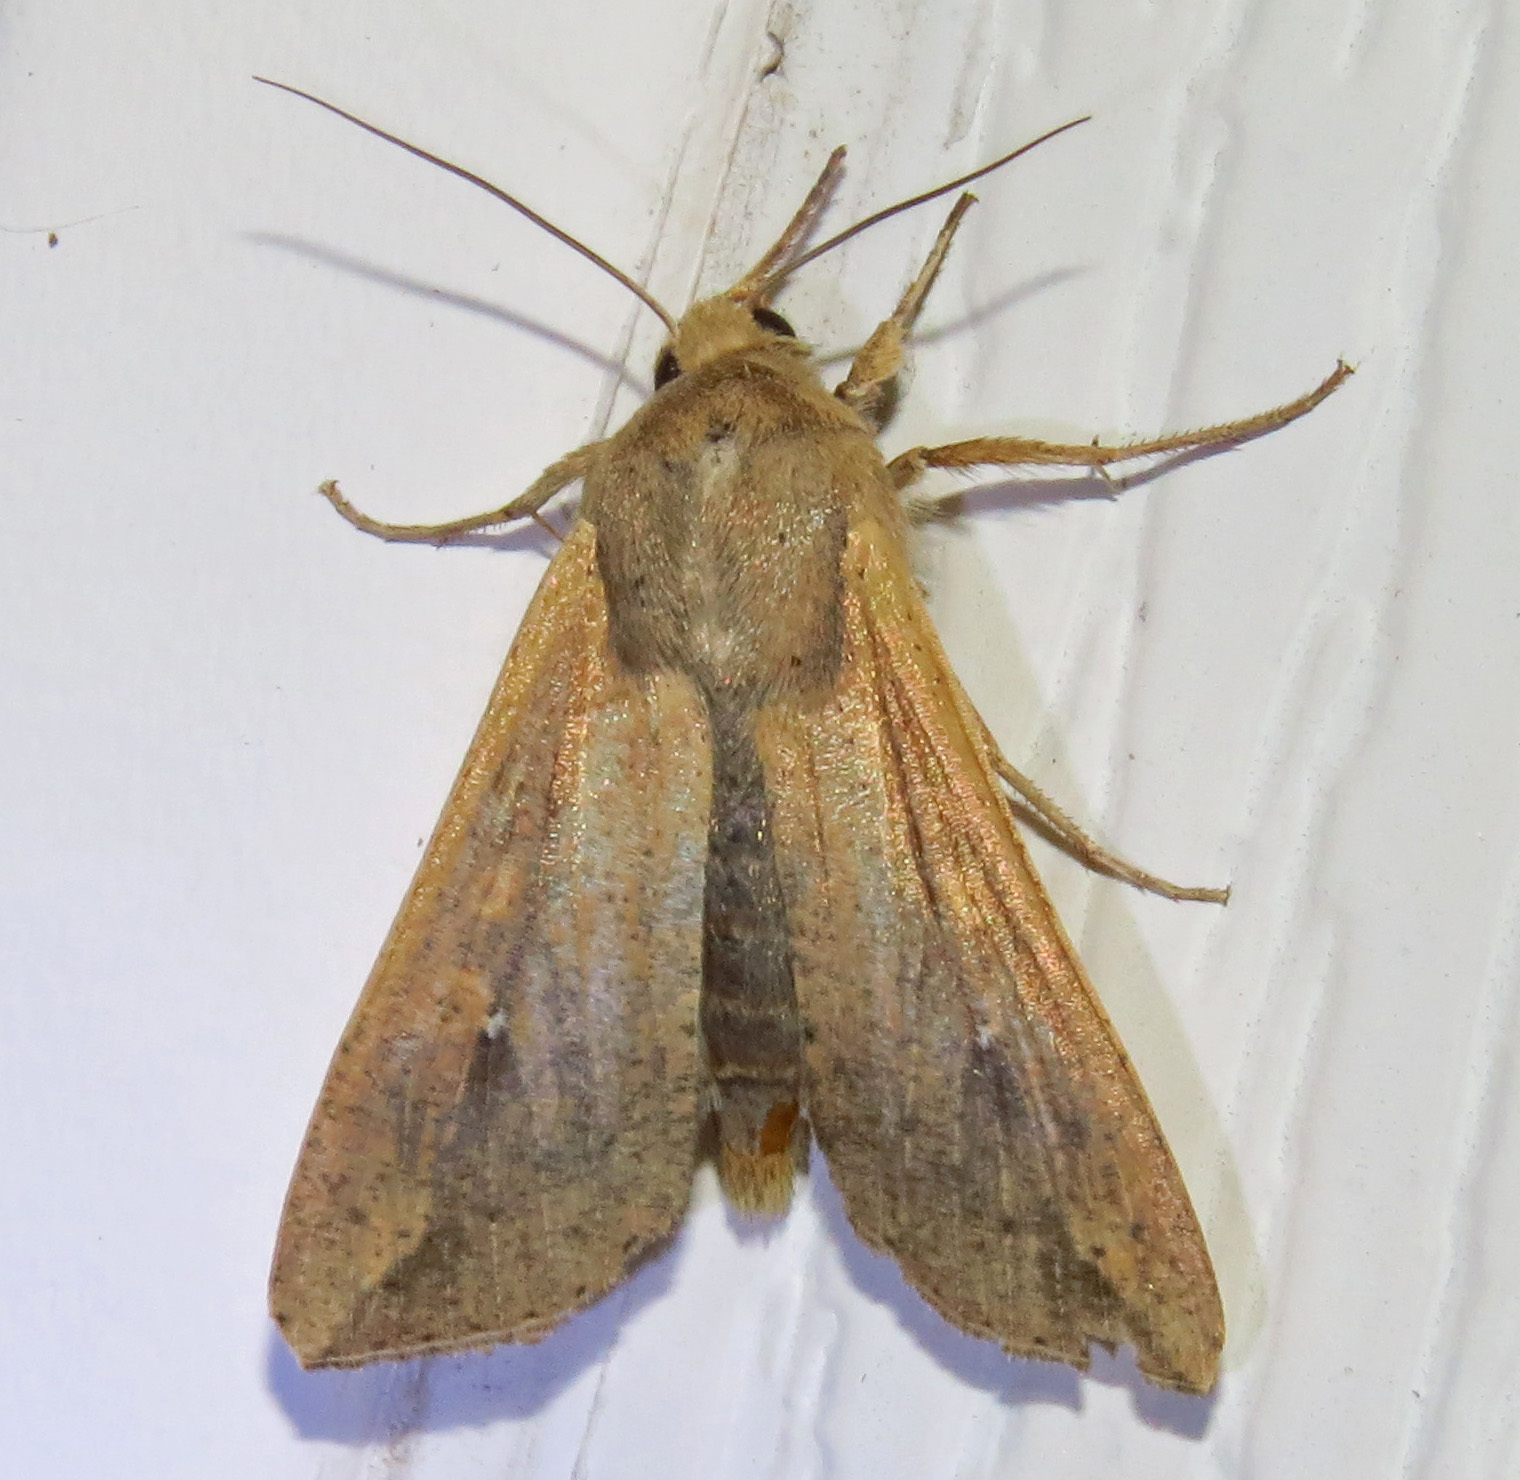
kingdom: Animalia
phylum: Arthropoda
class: Insecta
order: Lepidoptera
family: Noctuidae
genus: Mythimna
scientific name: Mythimna unipuncta
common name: White-speck
